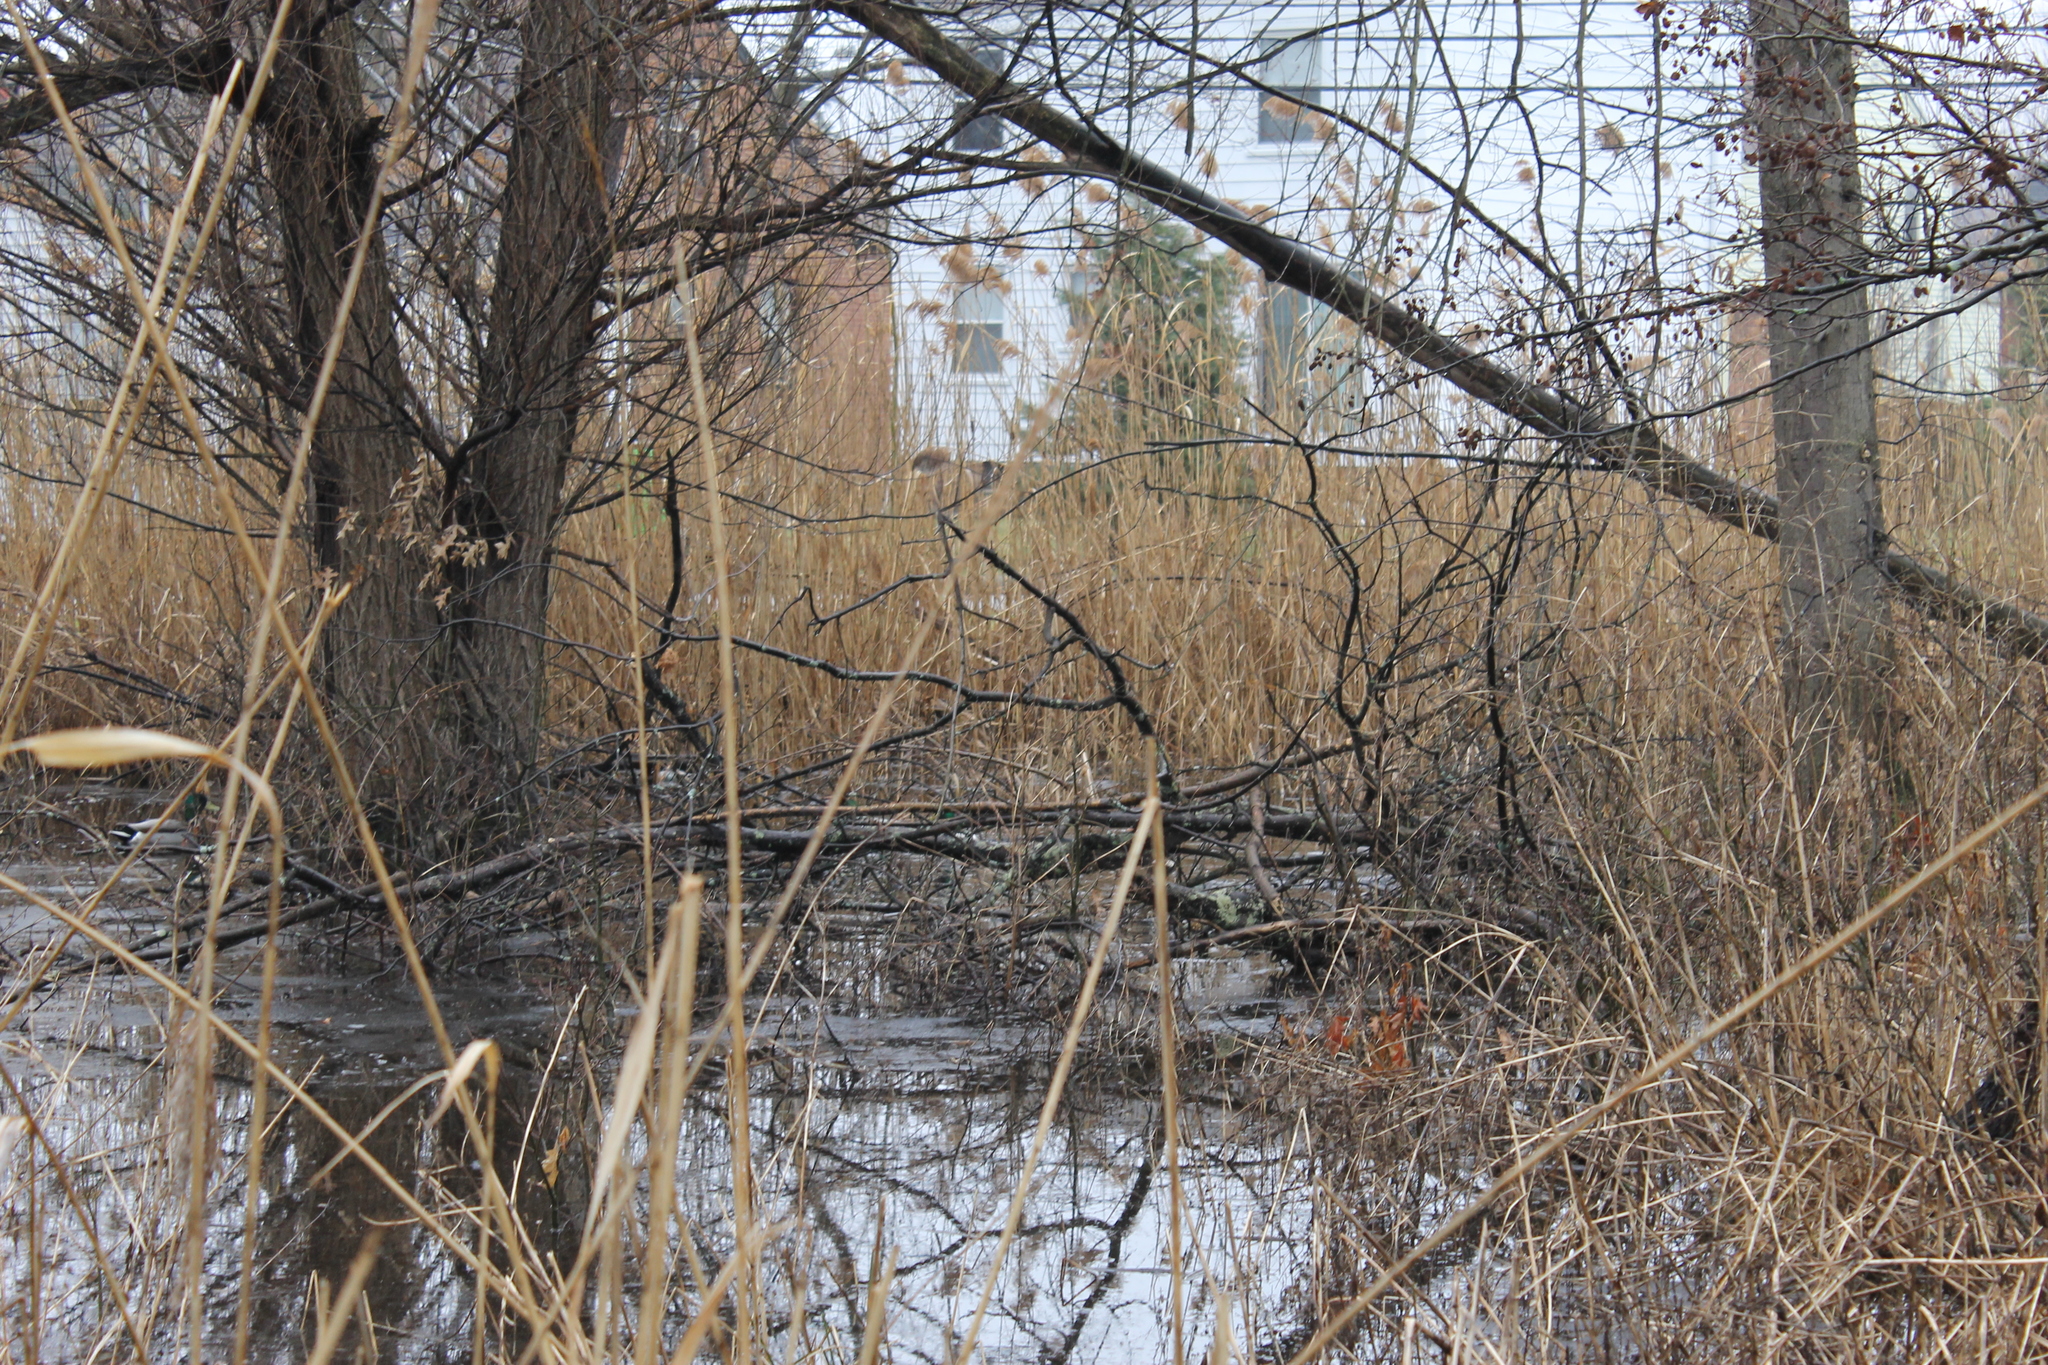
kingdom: Animalia
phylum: Chordata
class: Aves
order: Anseriformes
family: Anatidae
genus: Anas
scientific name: Anas platyrhynchos
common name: Mallard
